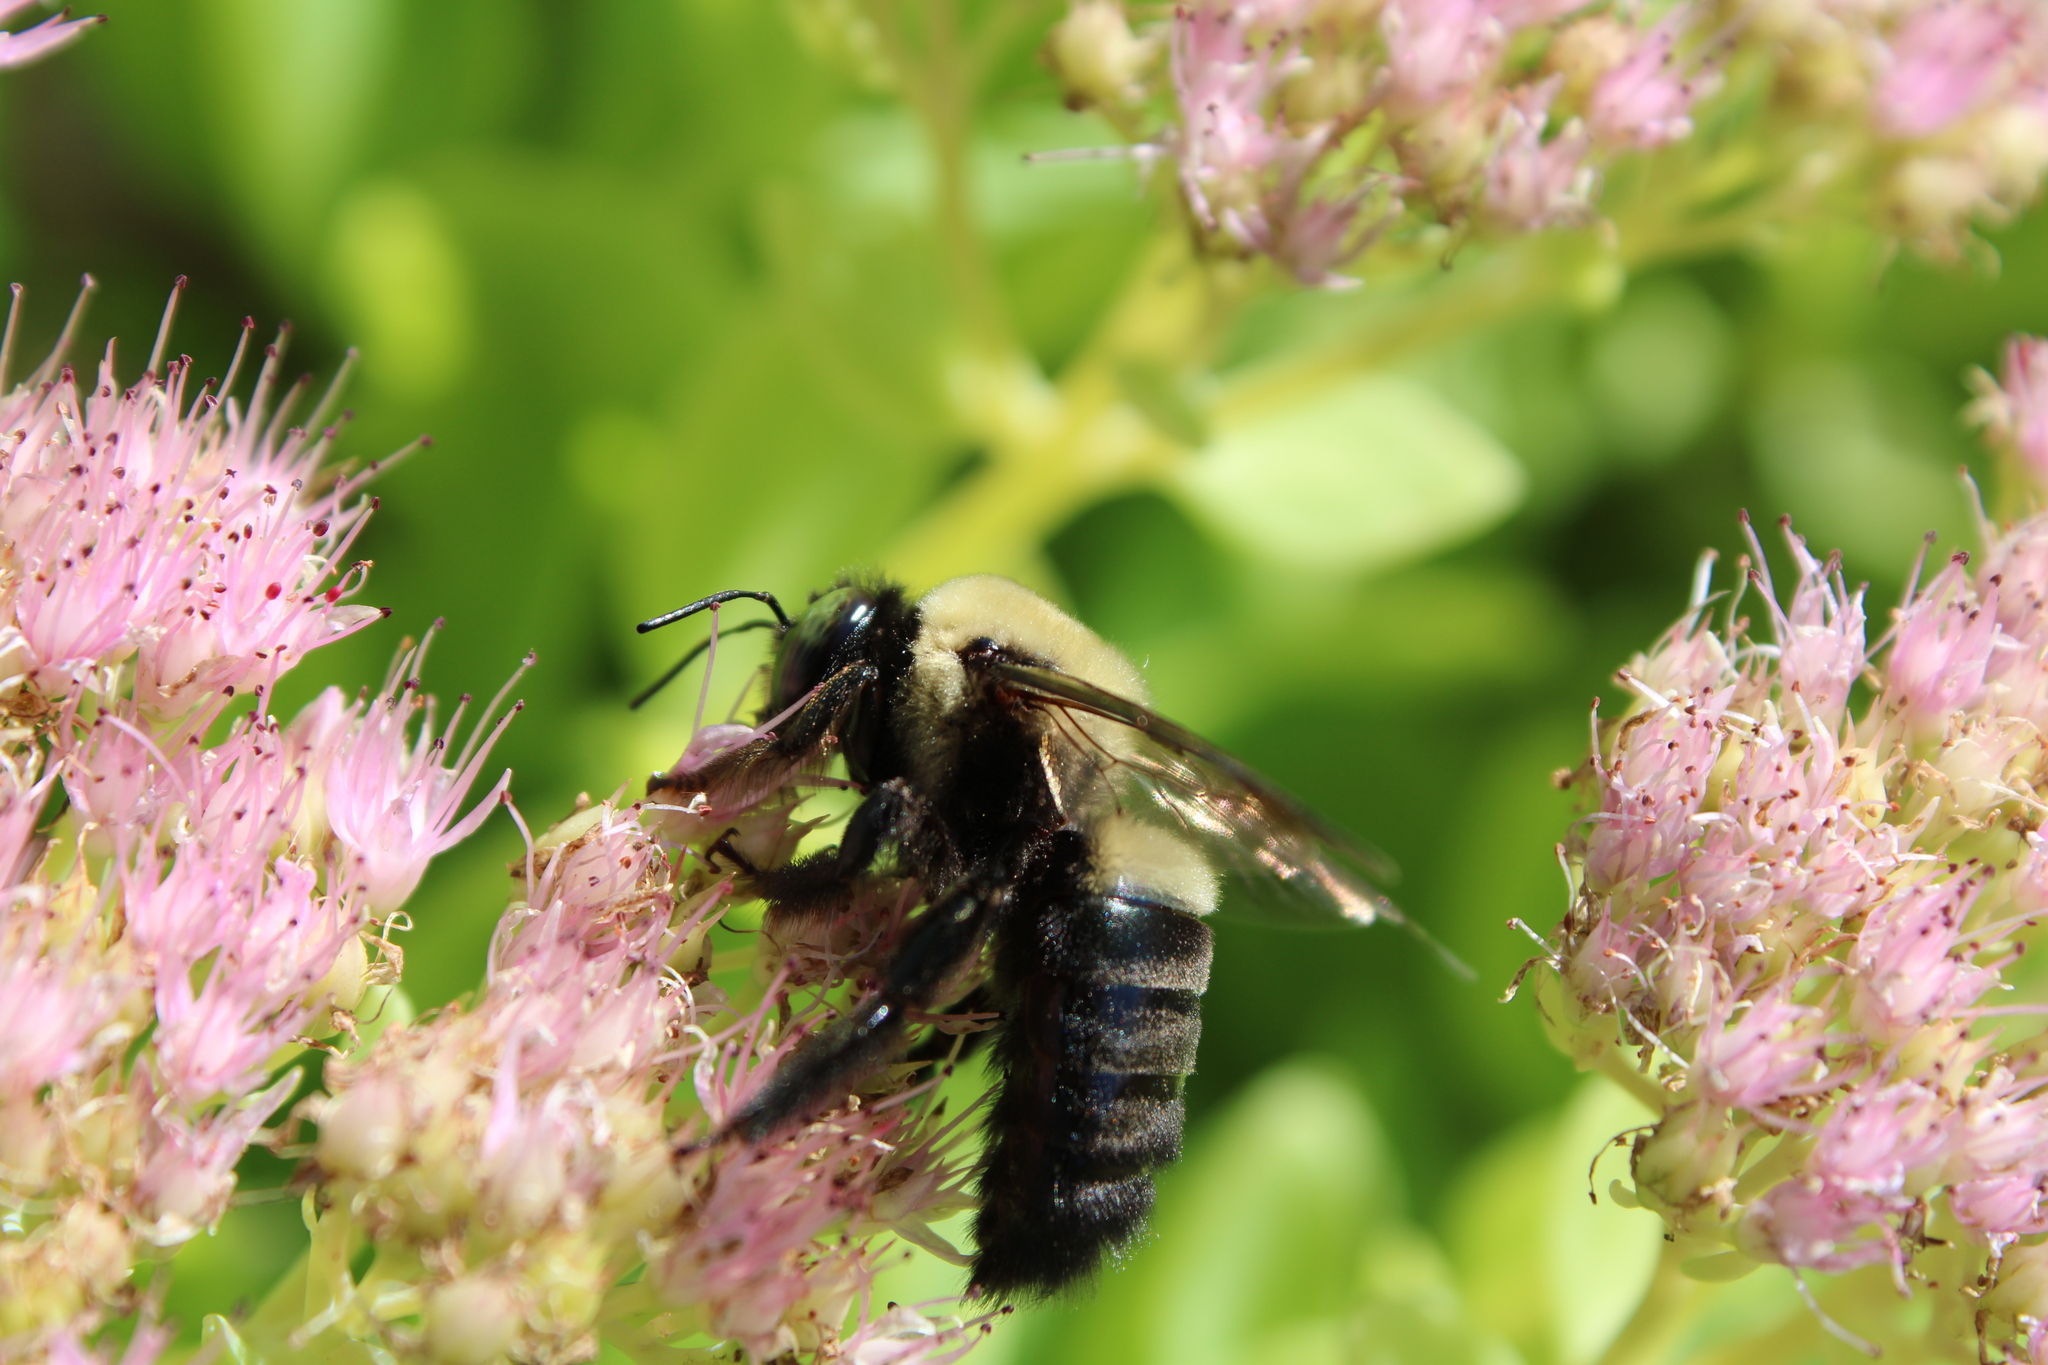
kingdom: Animalia
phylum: Arthropoda
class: Insecta
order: Hymenoptera
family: Apidae
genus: Xylocopa
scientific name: Xylocopa virginica
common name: Carpenter bee
